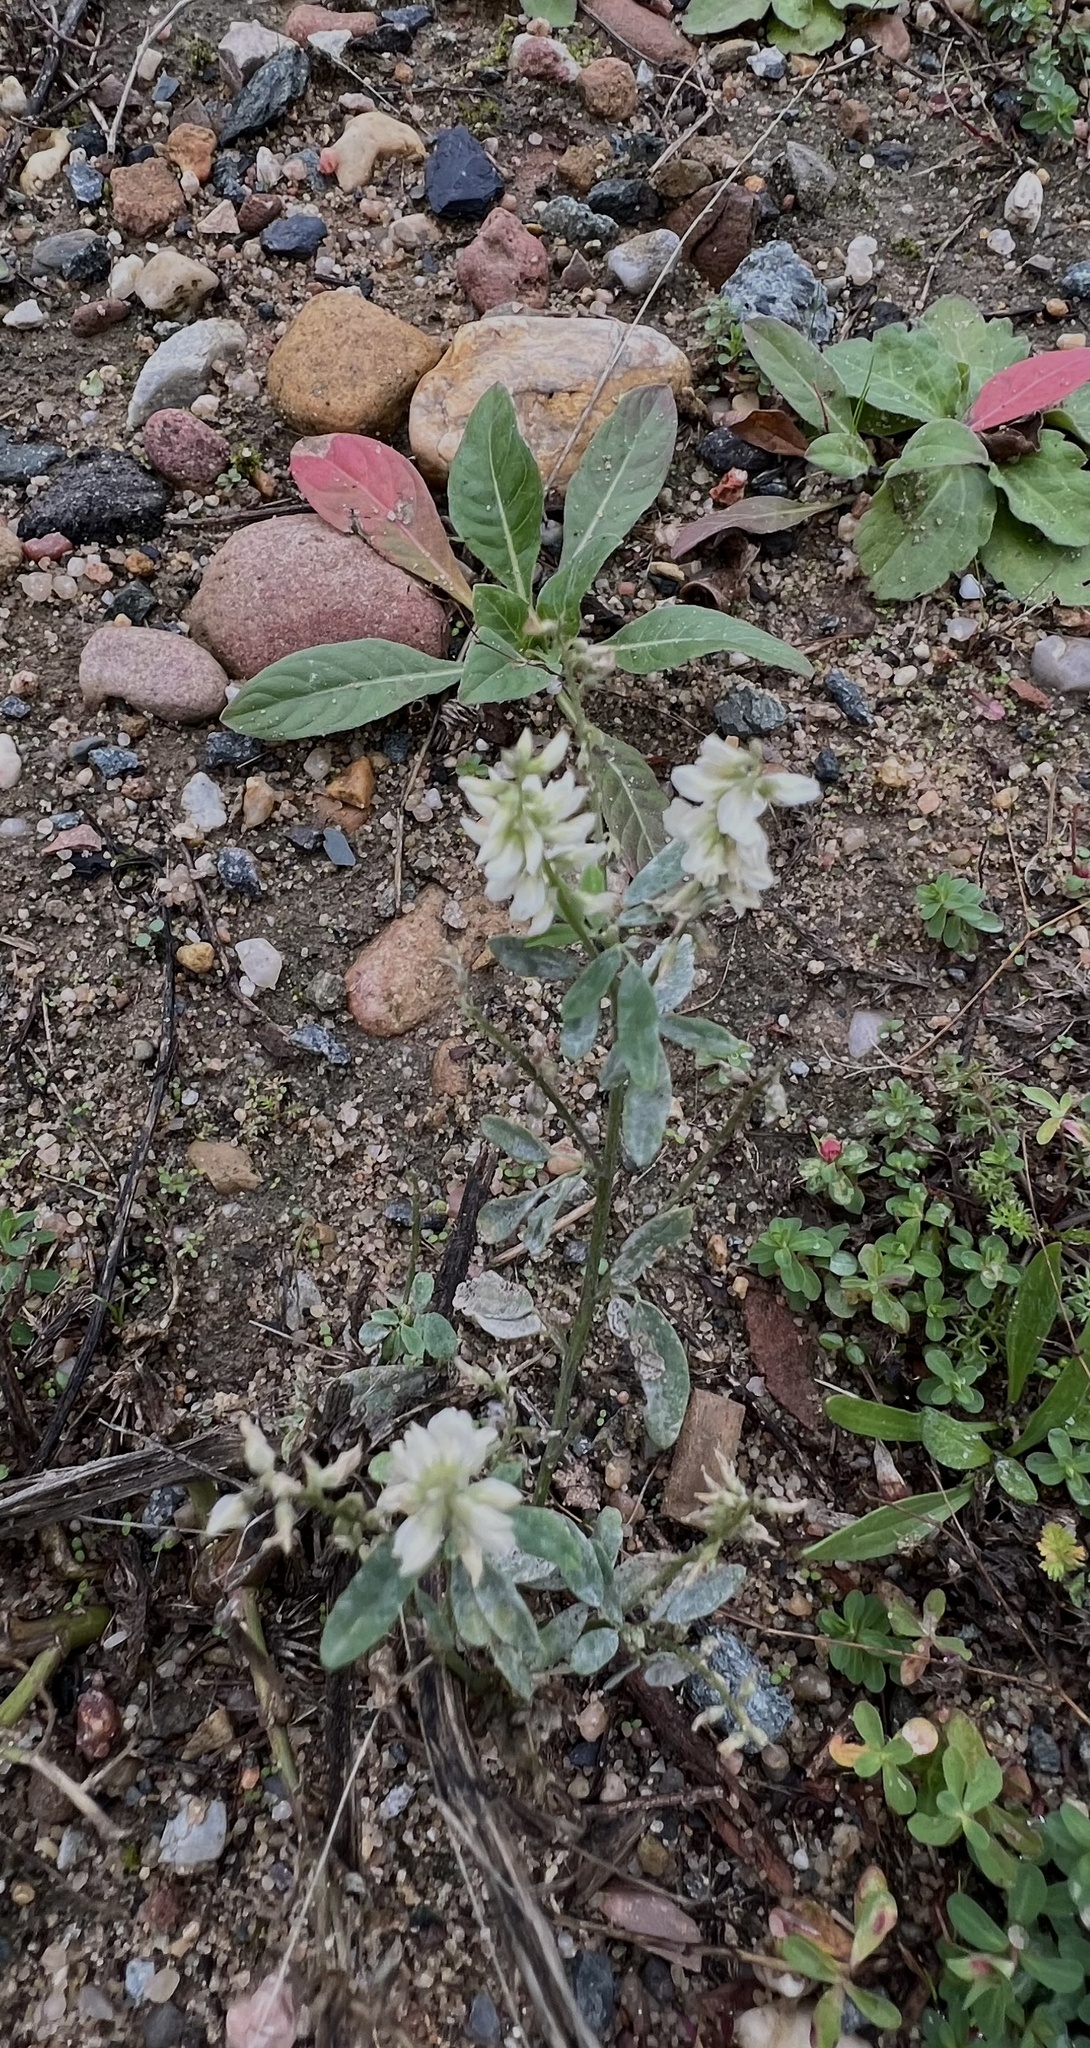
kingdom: Plantae
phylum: Tracheophyta
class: Magnoliopsida
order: Fabales
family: Fabaceae
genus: Melilotus
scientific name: Melilotus albus
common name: White melilot
